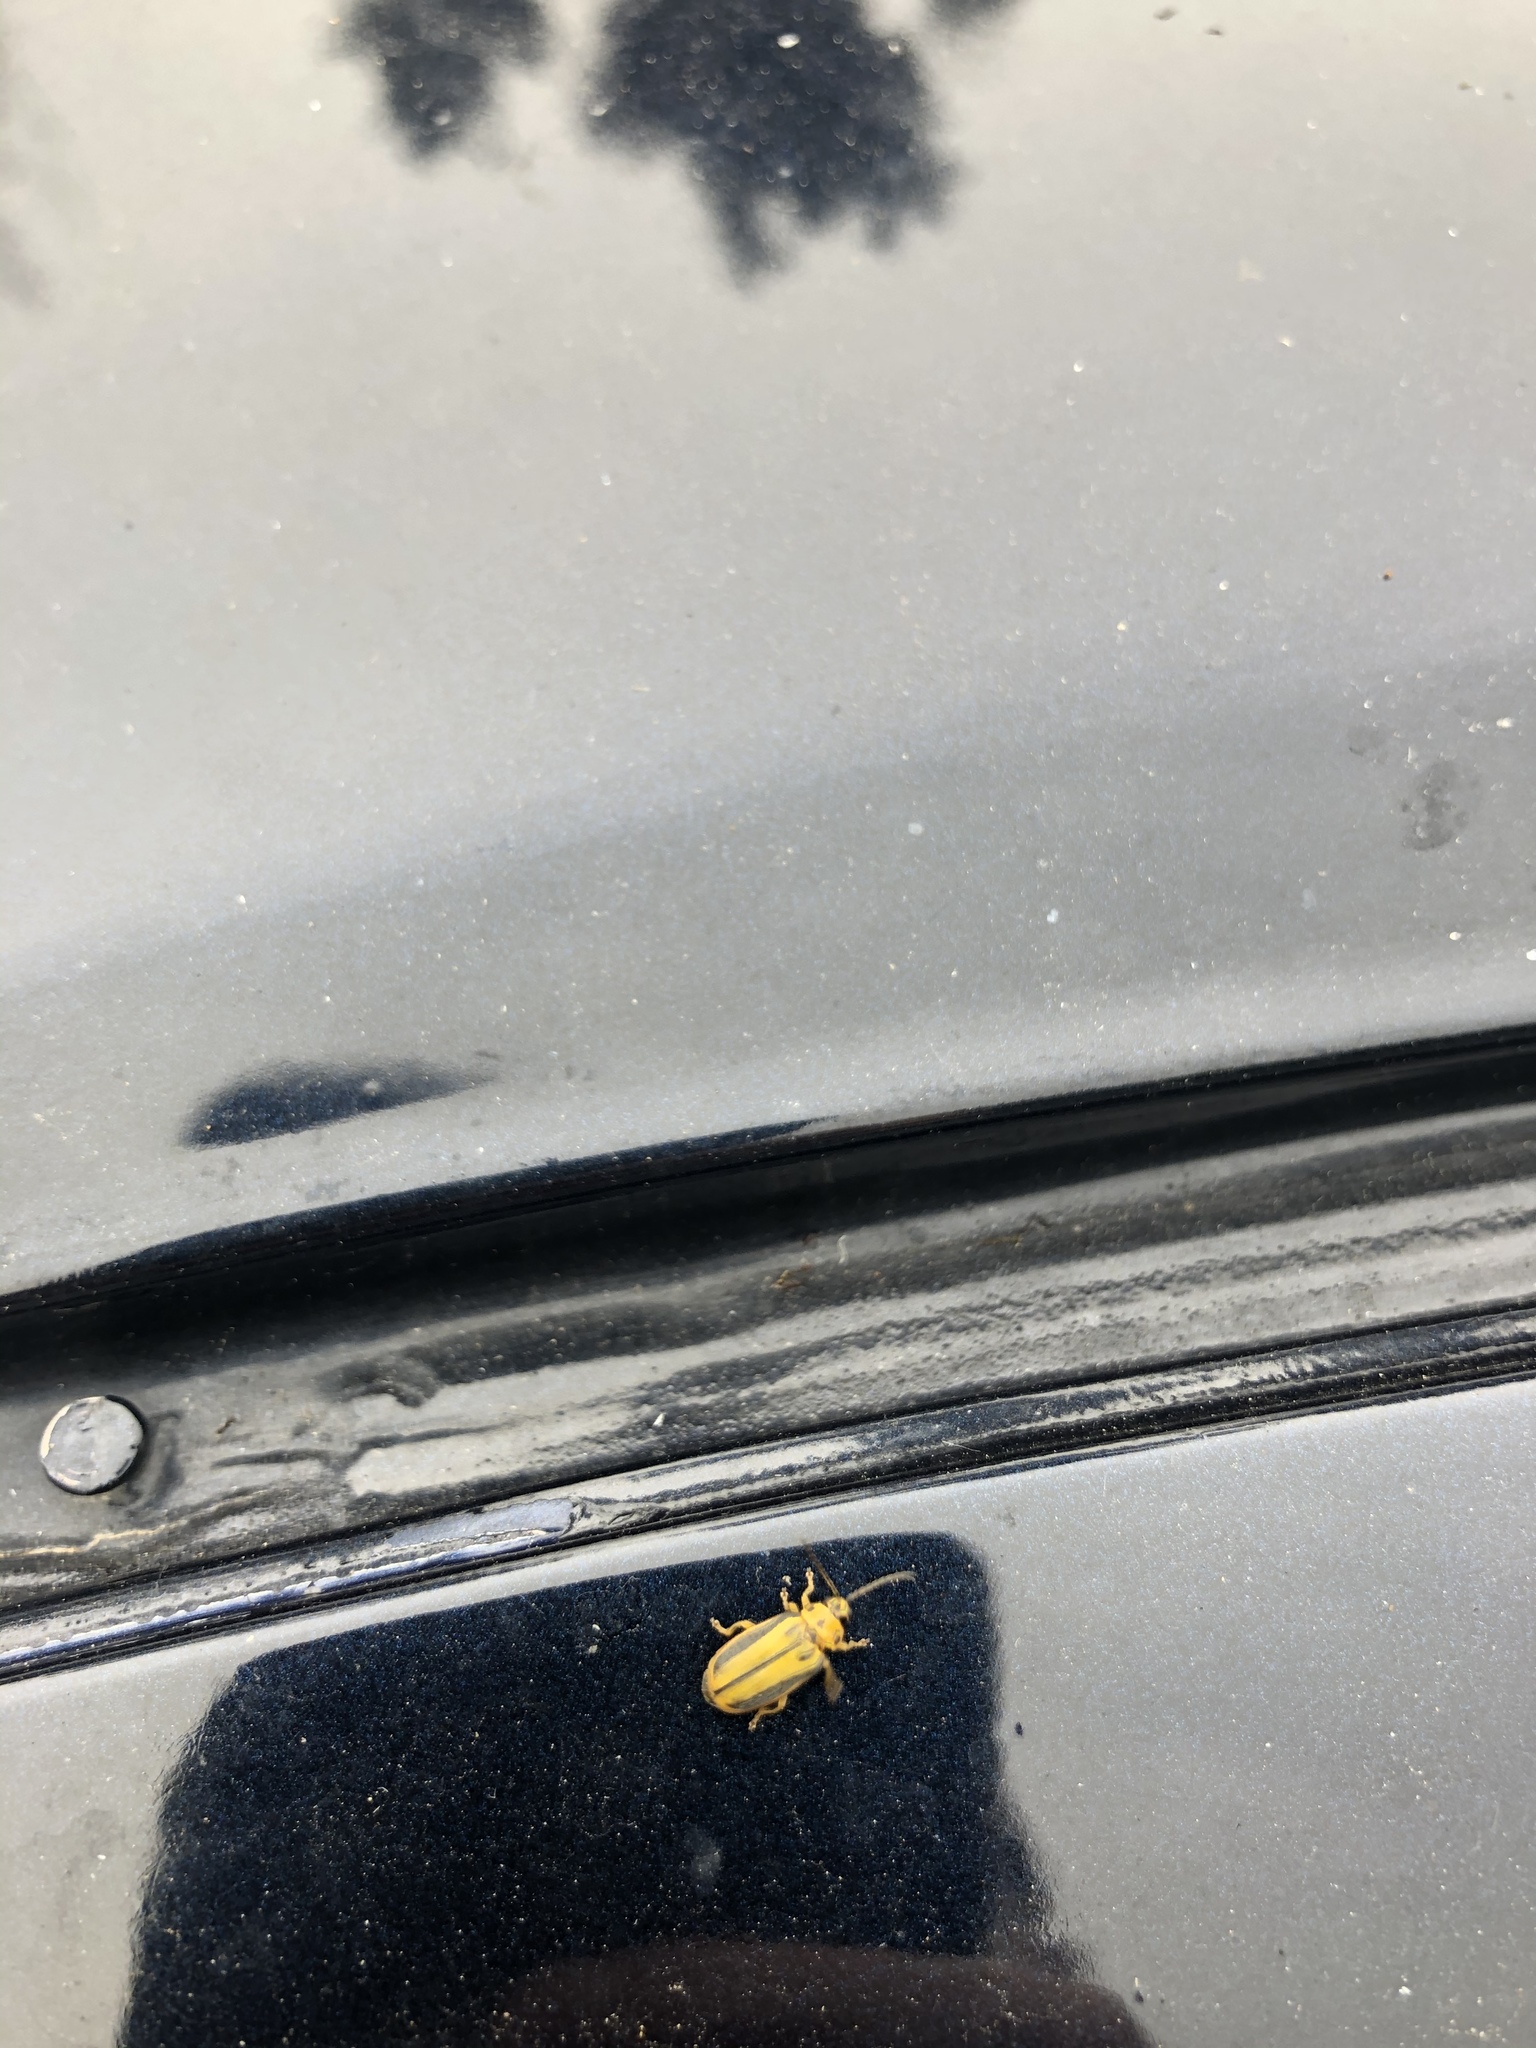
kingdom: Animalia
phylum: Arthropoda
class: Insecta
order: Coleoptera
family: Chrysomelidae
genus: Xanthogaleruca
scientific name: Xanthogaleruca luteola
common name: Elm leaf beetle
